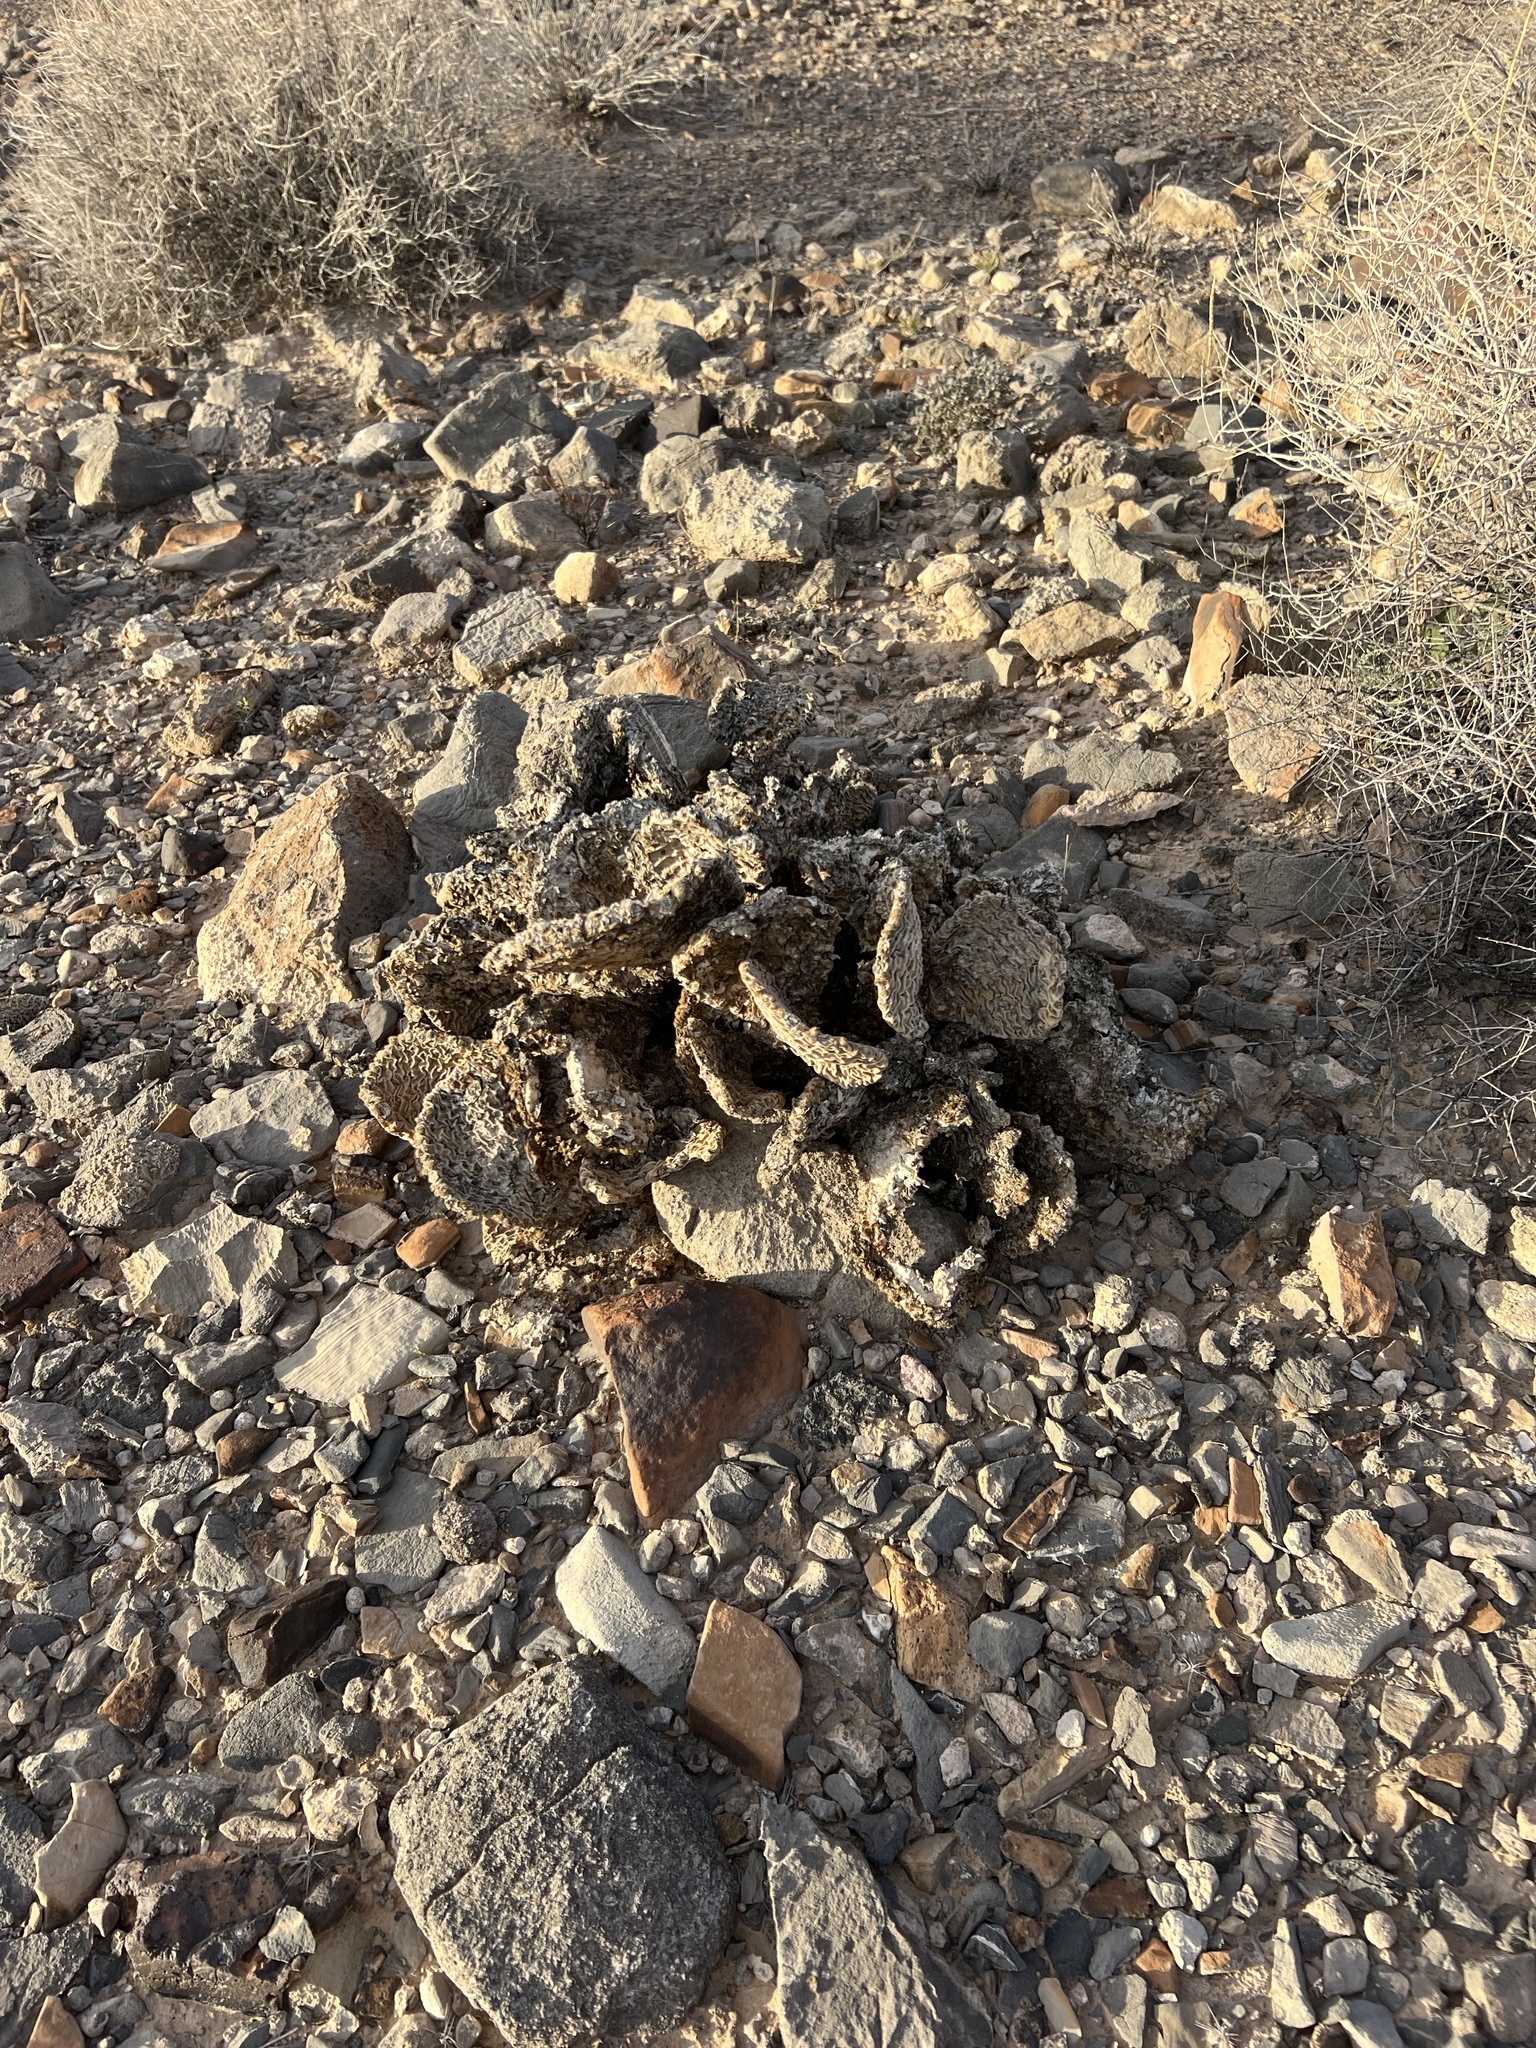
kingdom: Plantae
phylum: Tracheophyta
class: Magnoliopsida
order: Caryophyllales
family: Cactaceae
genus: Opuntia
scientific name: Opuntia basilaris
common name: Beavertail prickly-pear
